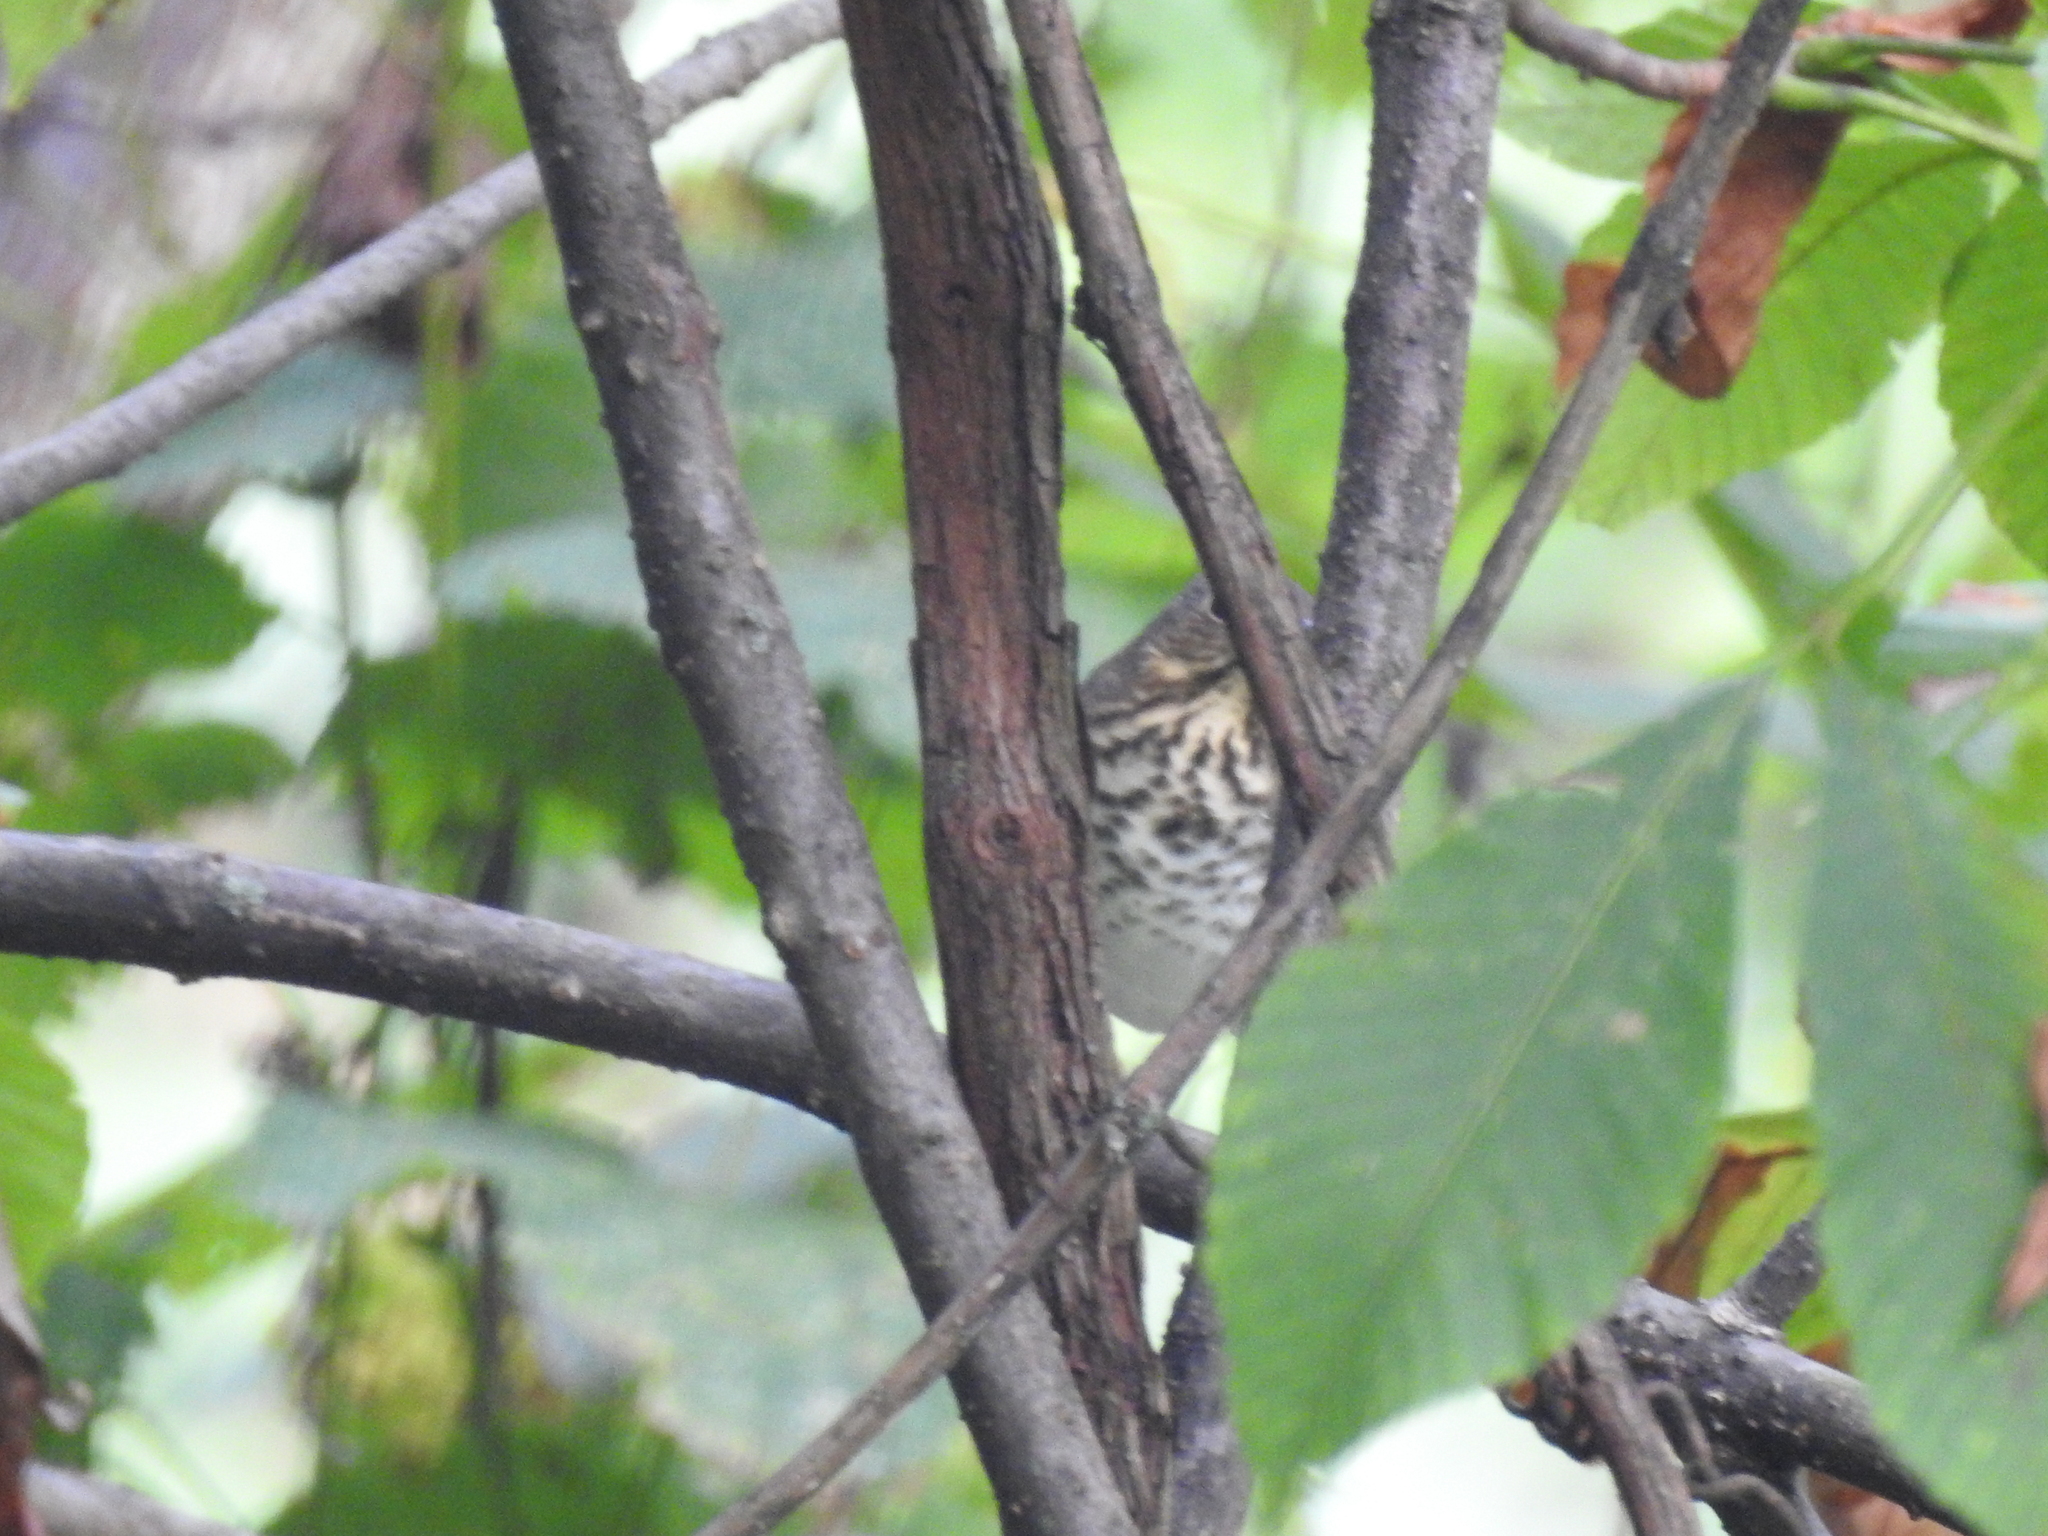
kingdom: Animalia
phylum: Chordata
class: Aves
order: Passeriformes
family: Turdidae
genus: Catharus
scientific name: Catharus ustulatus
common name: Swainson's thrush
